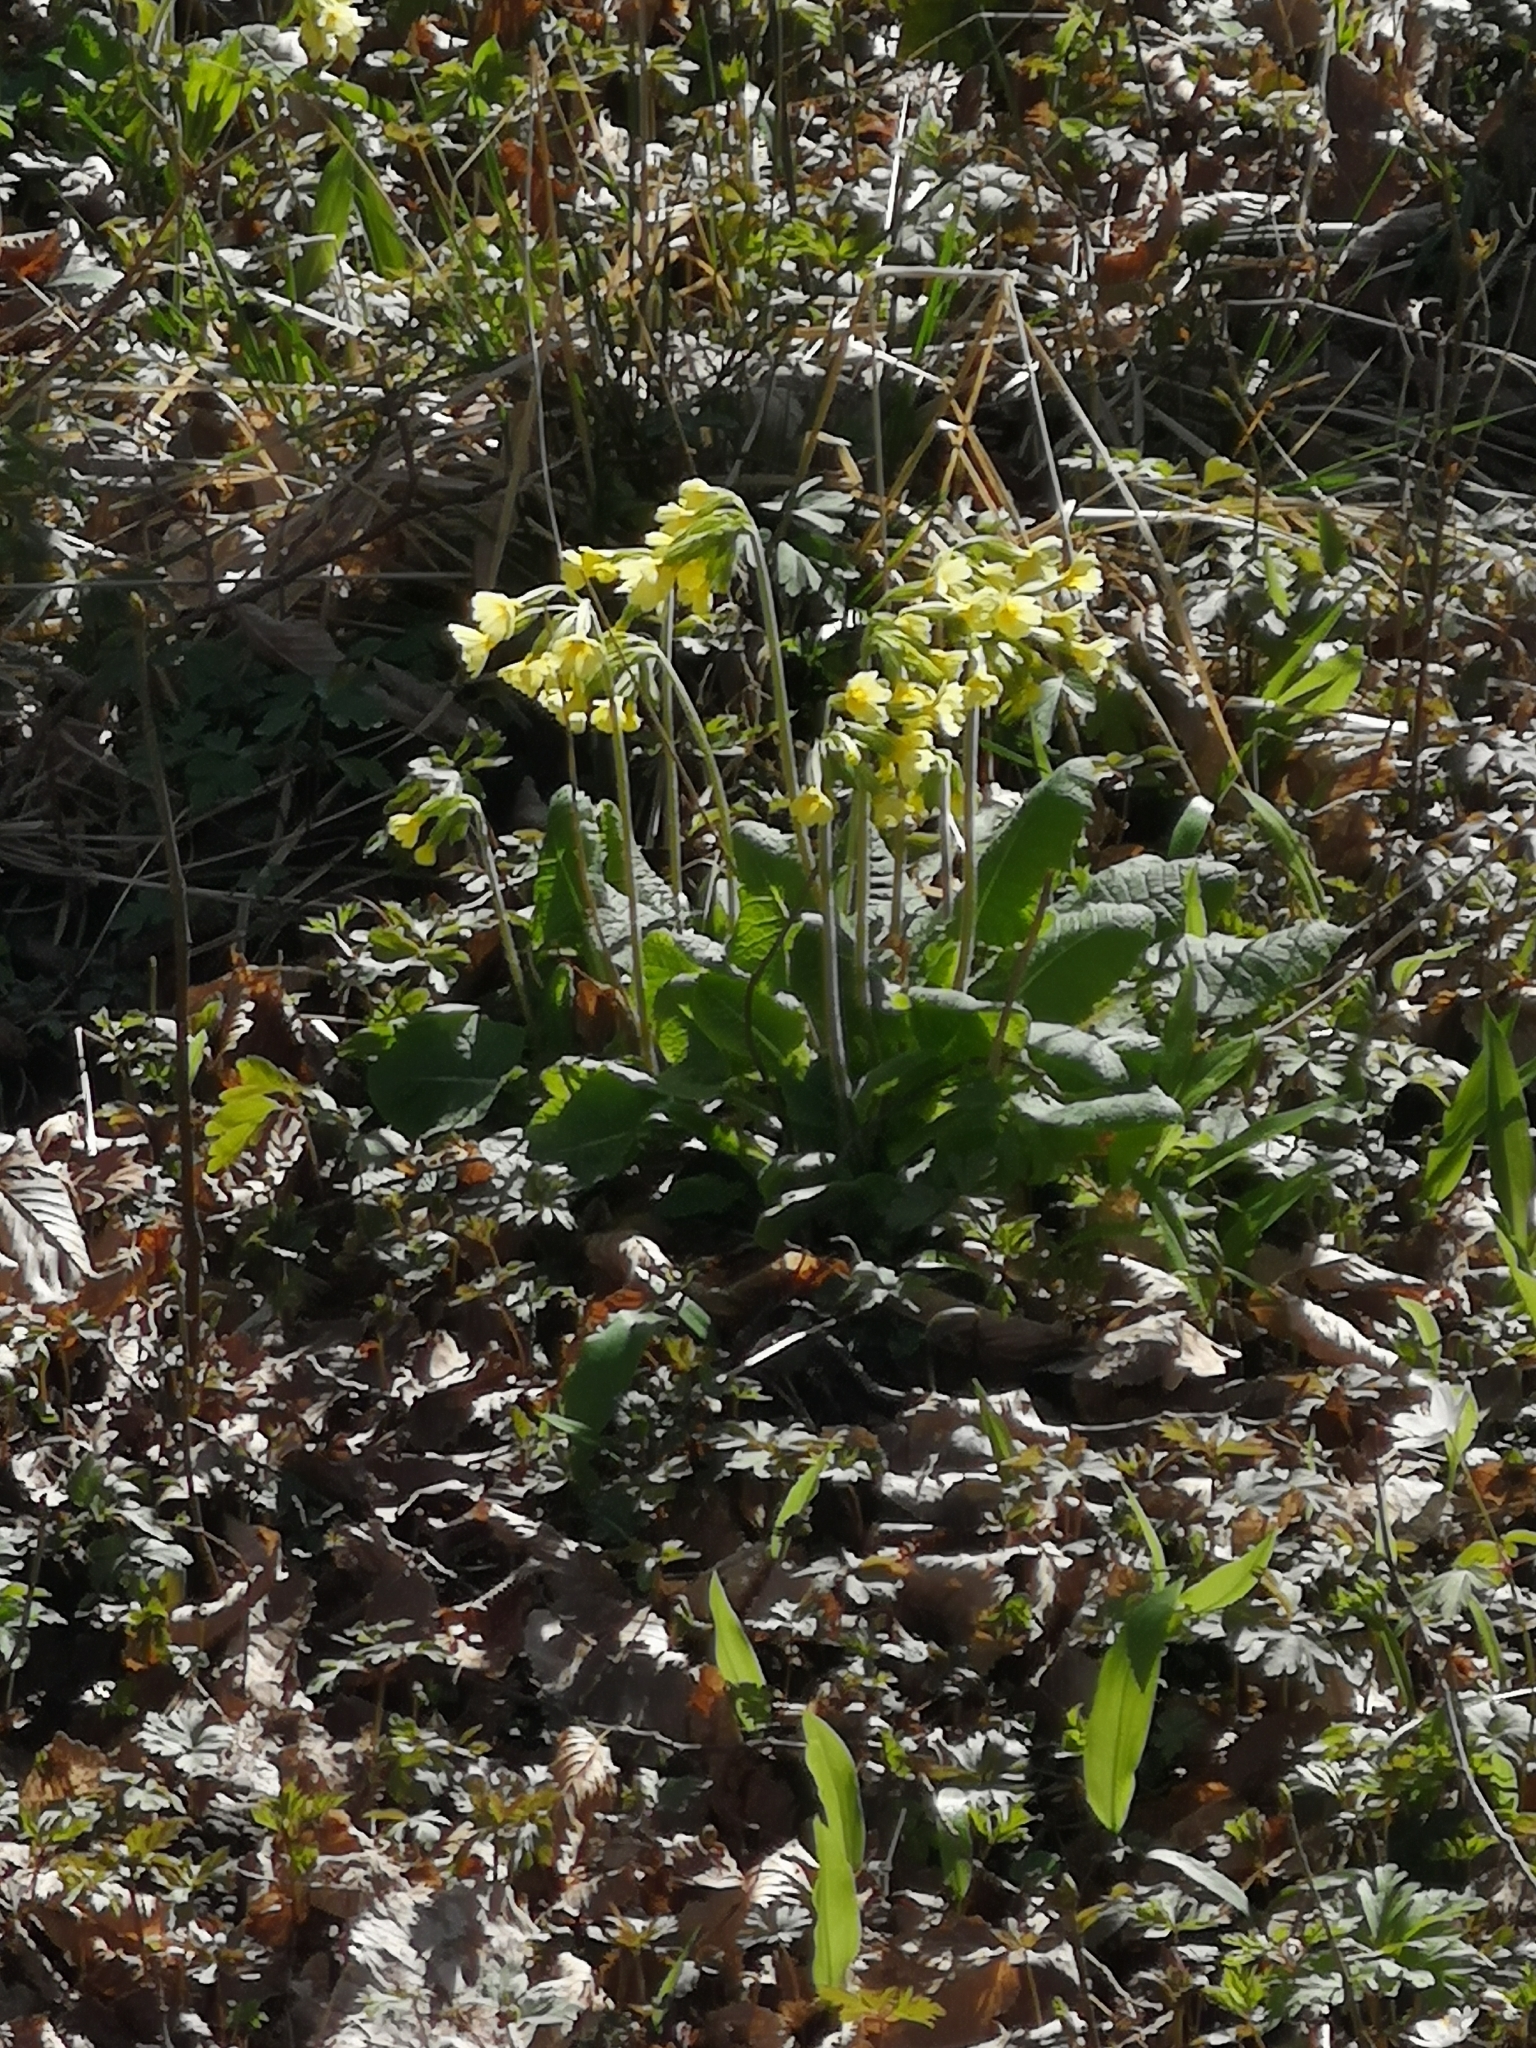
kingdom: Plantae
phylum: Tracheophyta
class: Magnoliopsida
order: Ericales
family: Primulaceae
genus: Primula
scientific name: Primula elatior
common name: Oxlip
